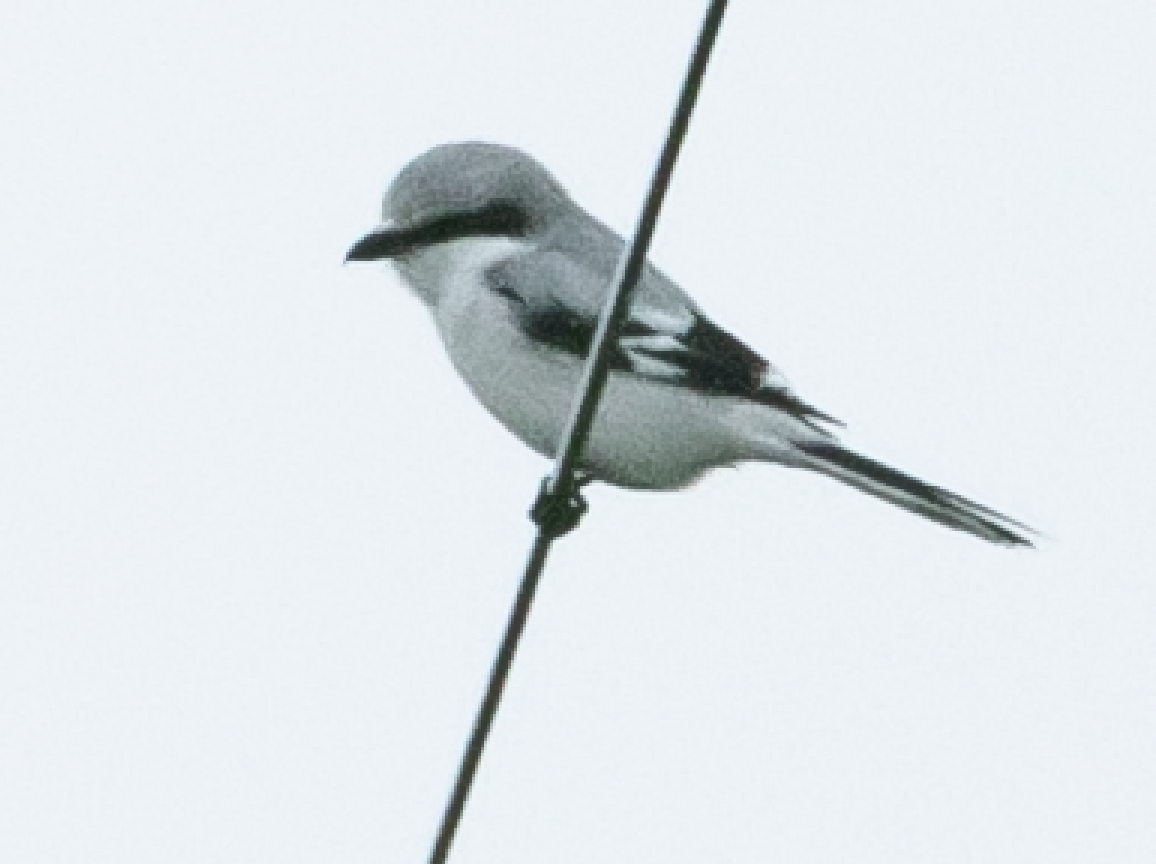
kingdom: Animalia
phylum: Chordata
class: Aves
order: Passeriformes
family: Laniidae
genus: Lanius
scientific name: Lanius excubitor
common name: Great grey shrike
